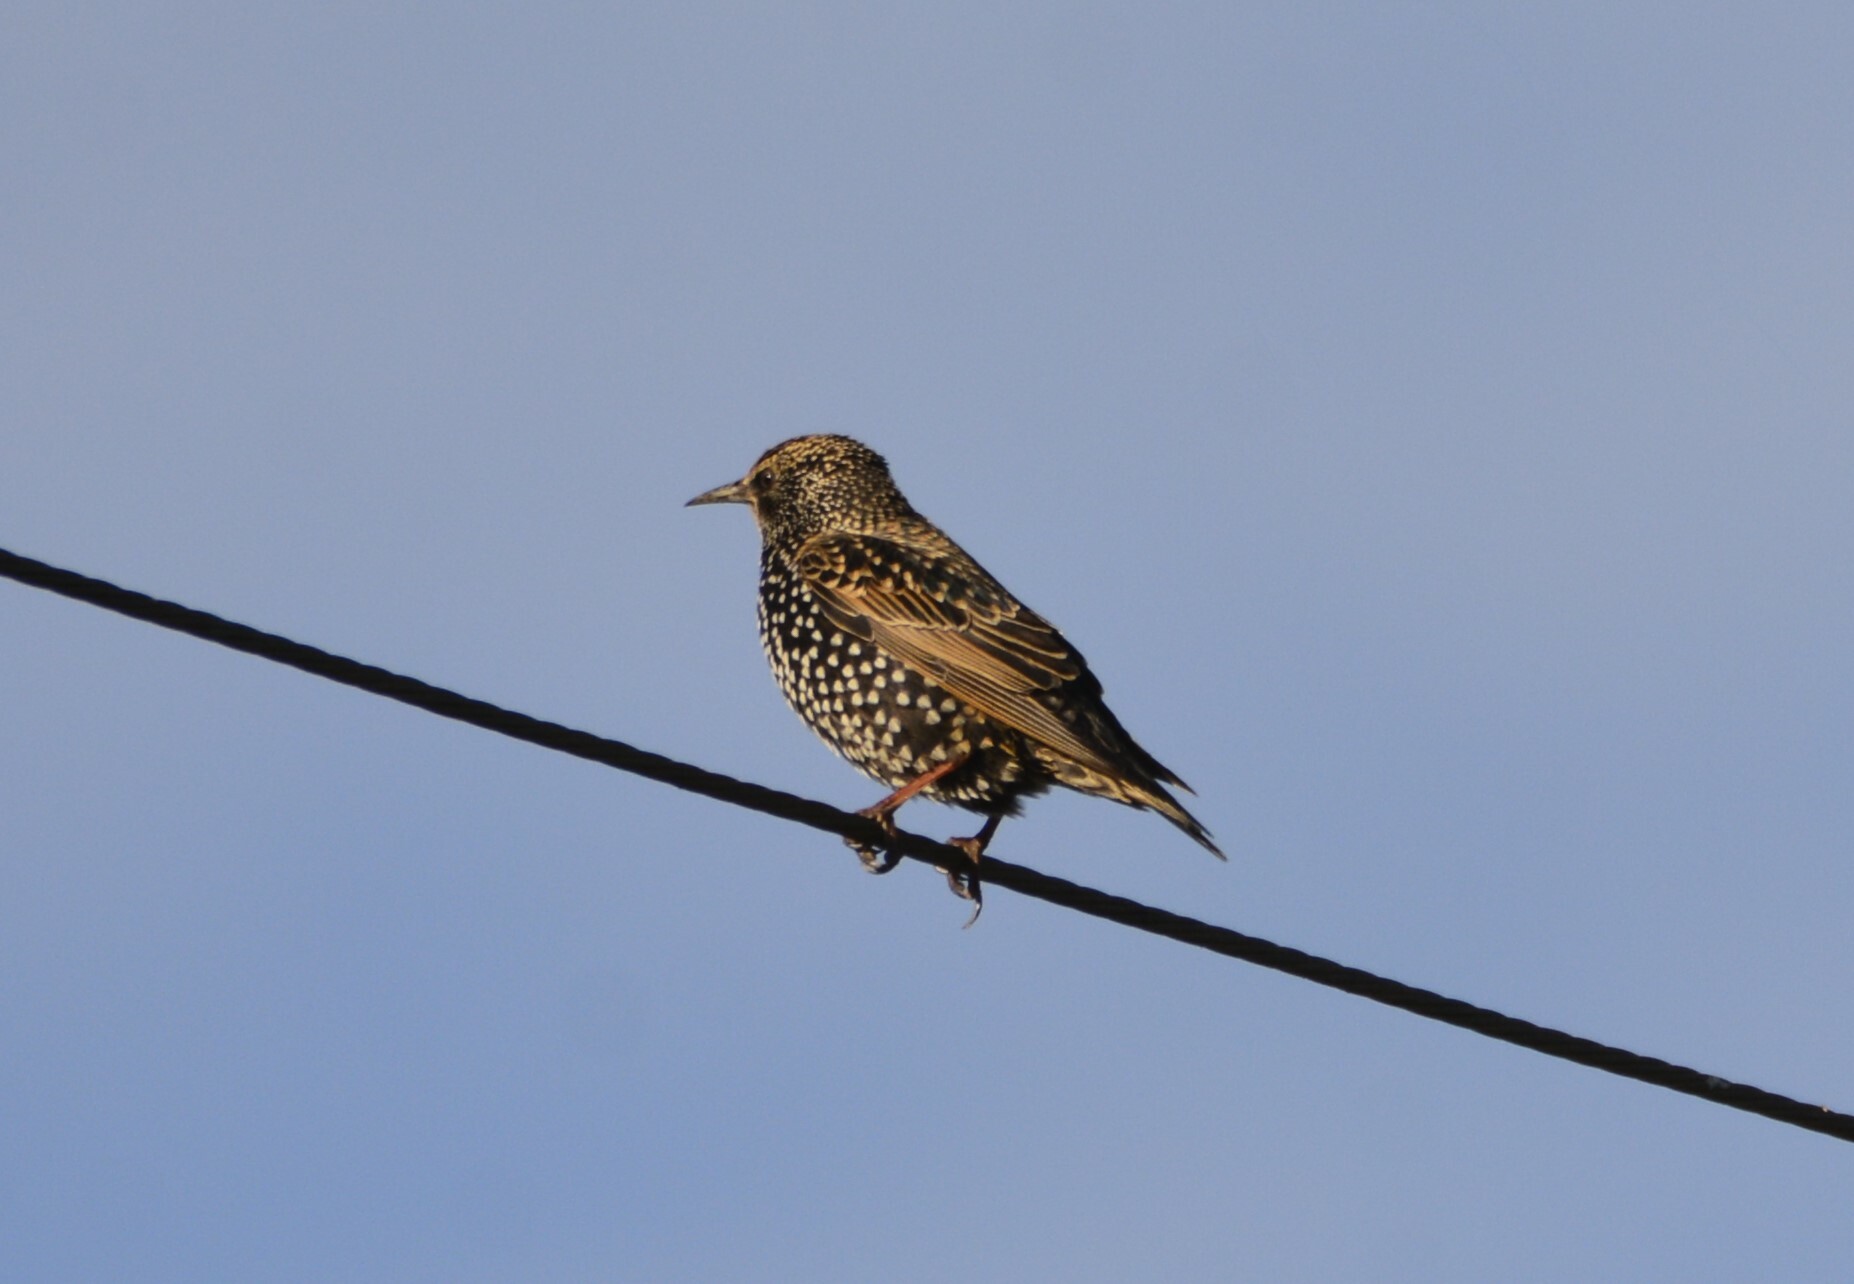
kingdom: Animalia
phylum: Chordata
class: Aves
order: Passeriformes
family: Sturnidae
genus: Sturnus
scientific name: Sturnus vulgaris
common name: Common starling
